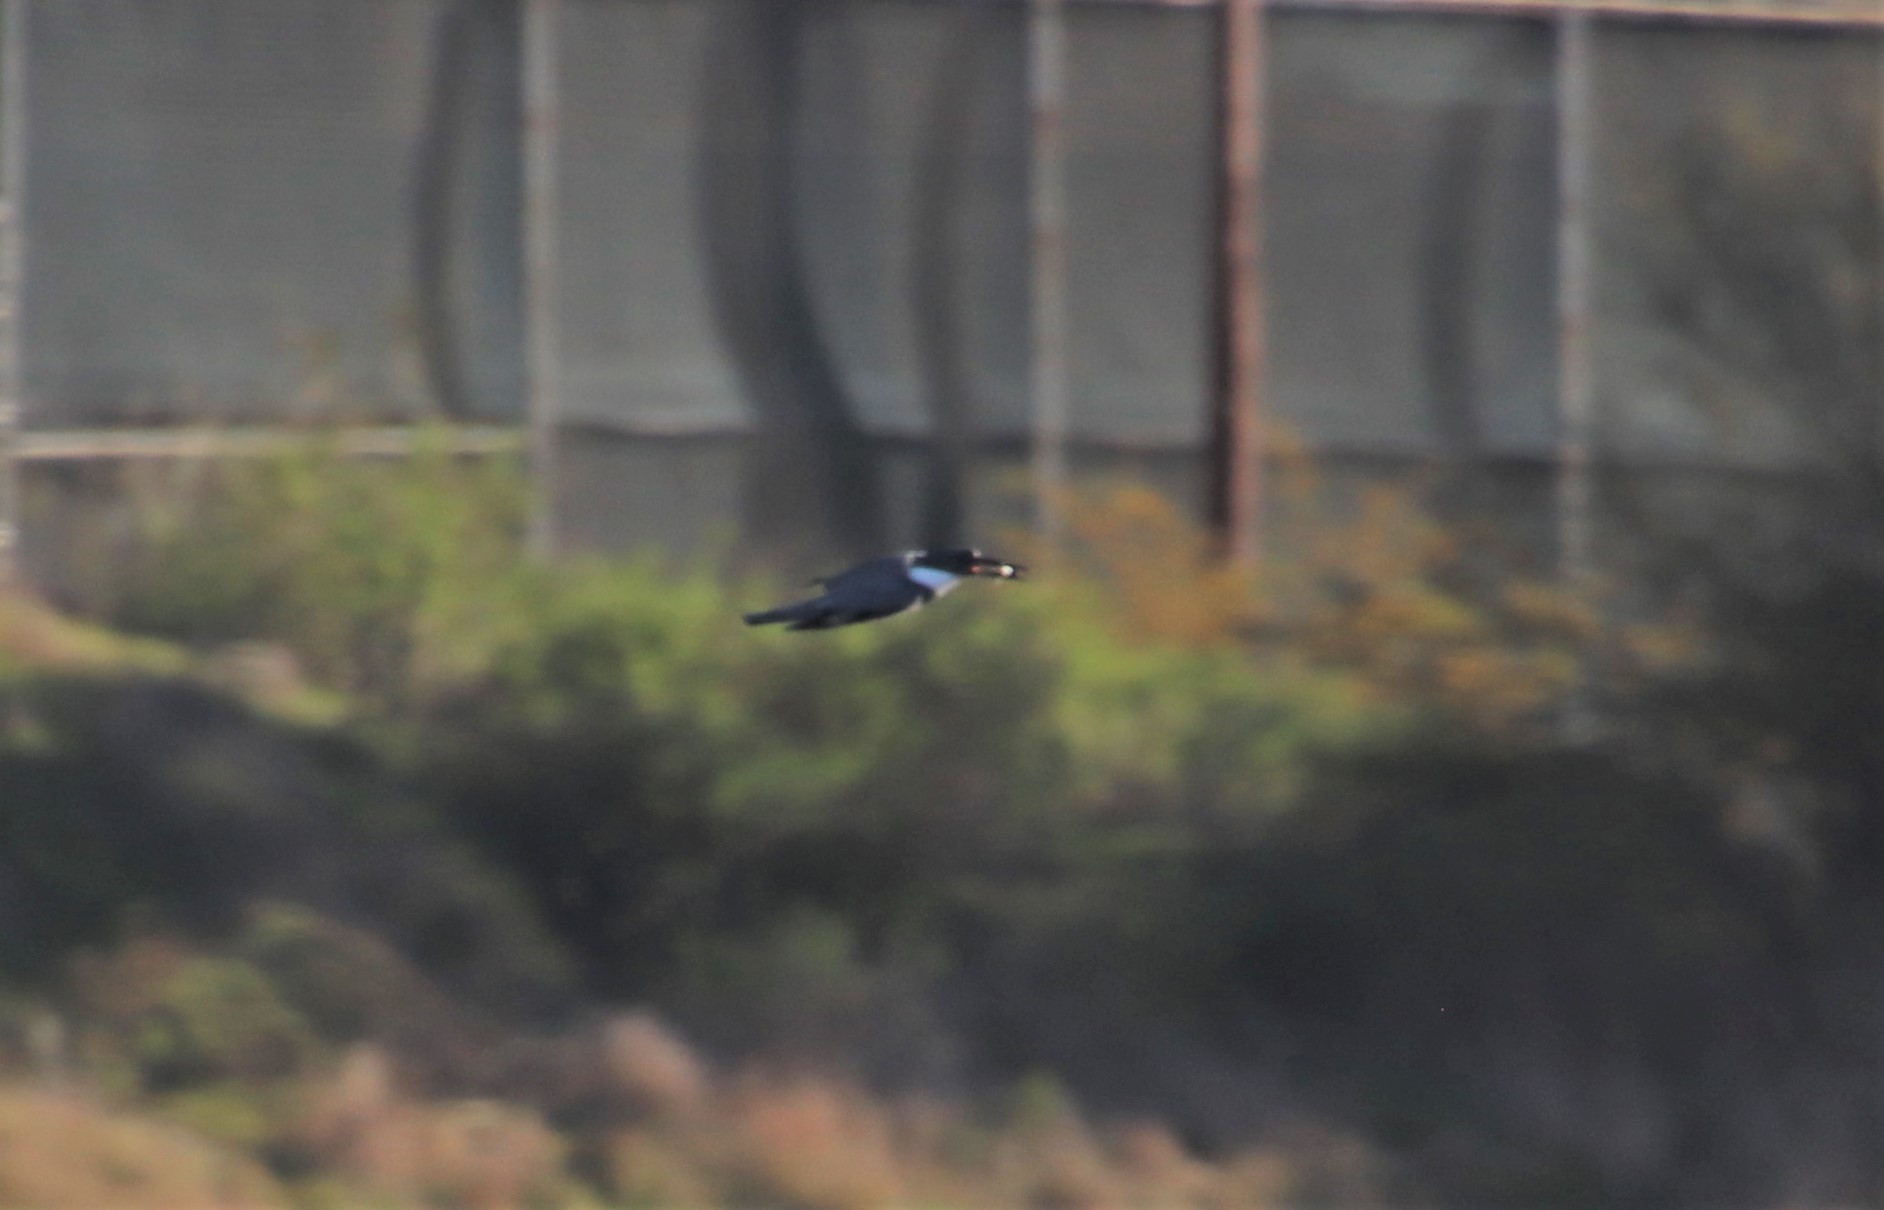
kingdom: Animalia
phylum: Chordata
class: Aves
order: Coraciiformes
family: Alcedinidae
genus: Megaceryle
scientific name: Megaceryle alcyon
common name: Belted kingfisher
